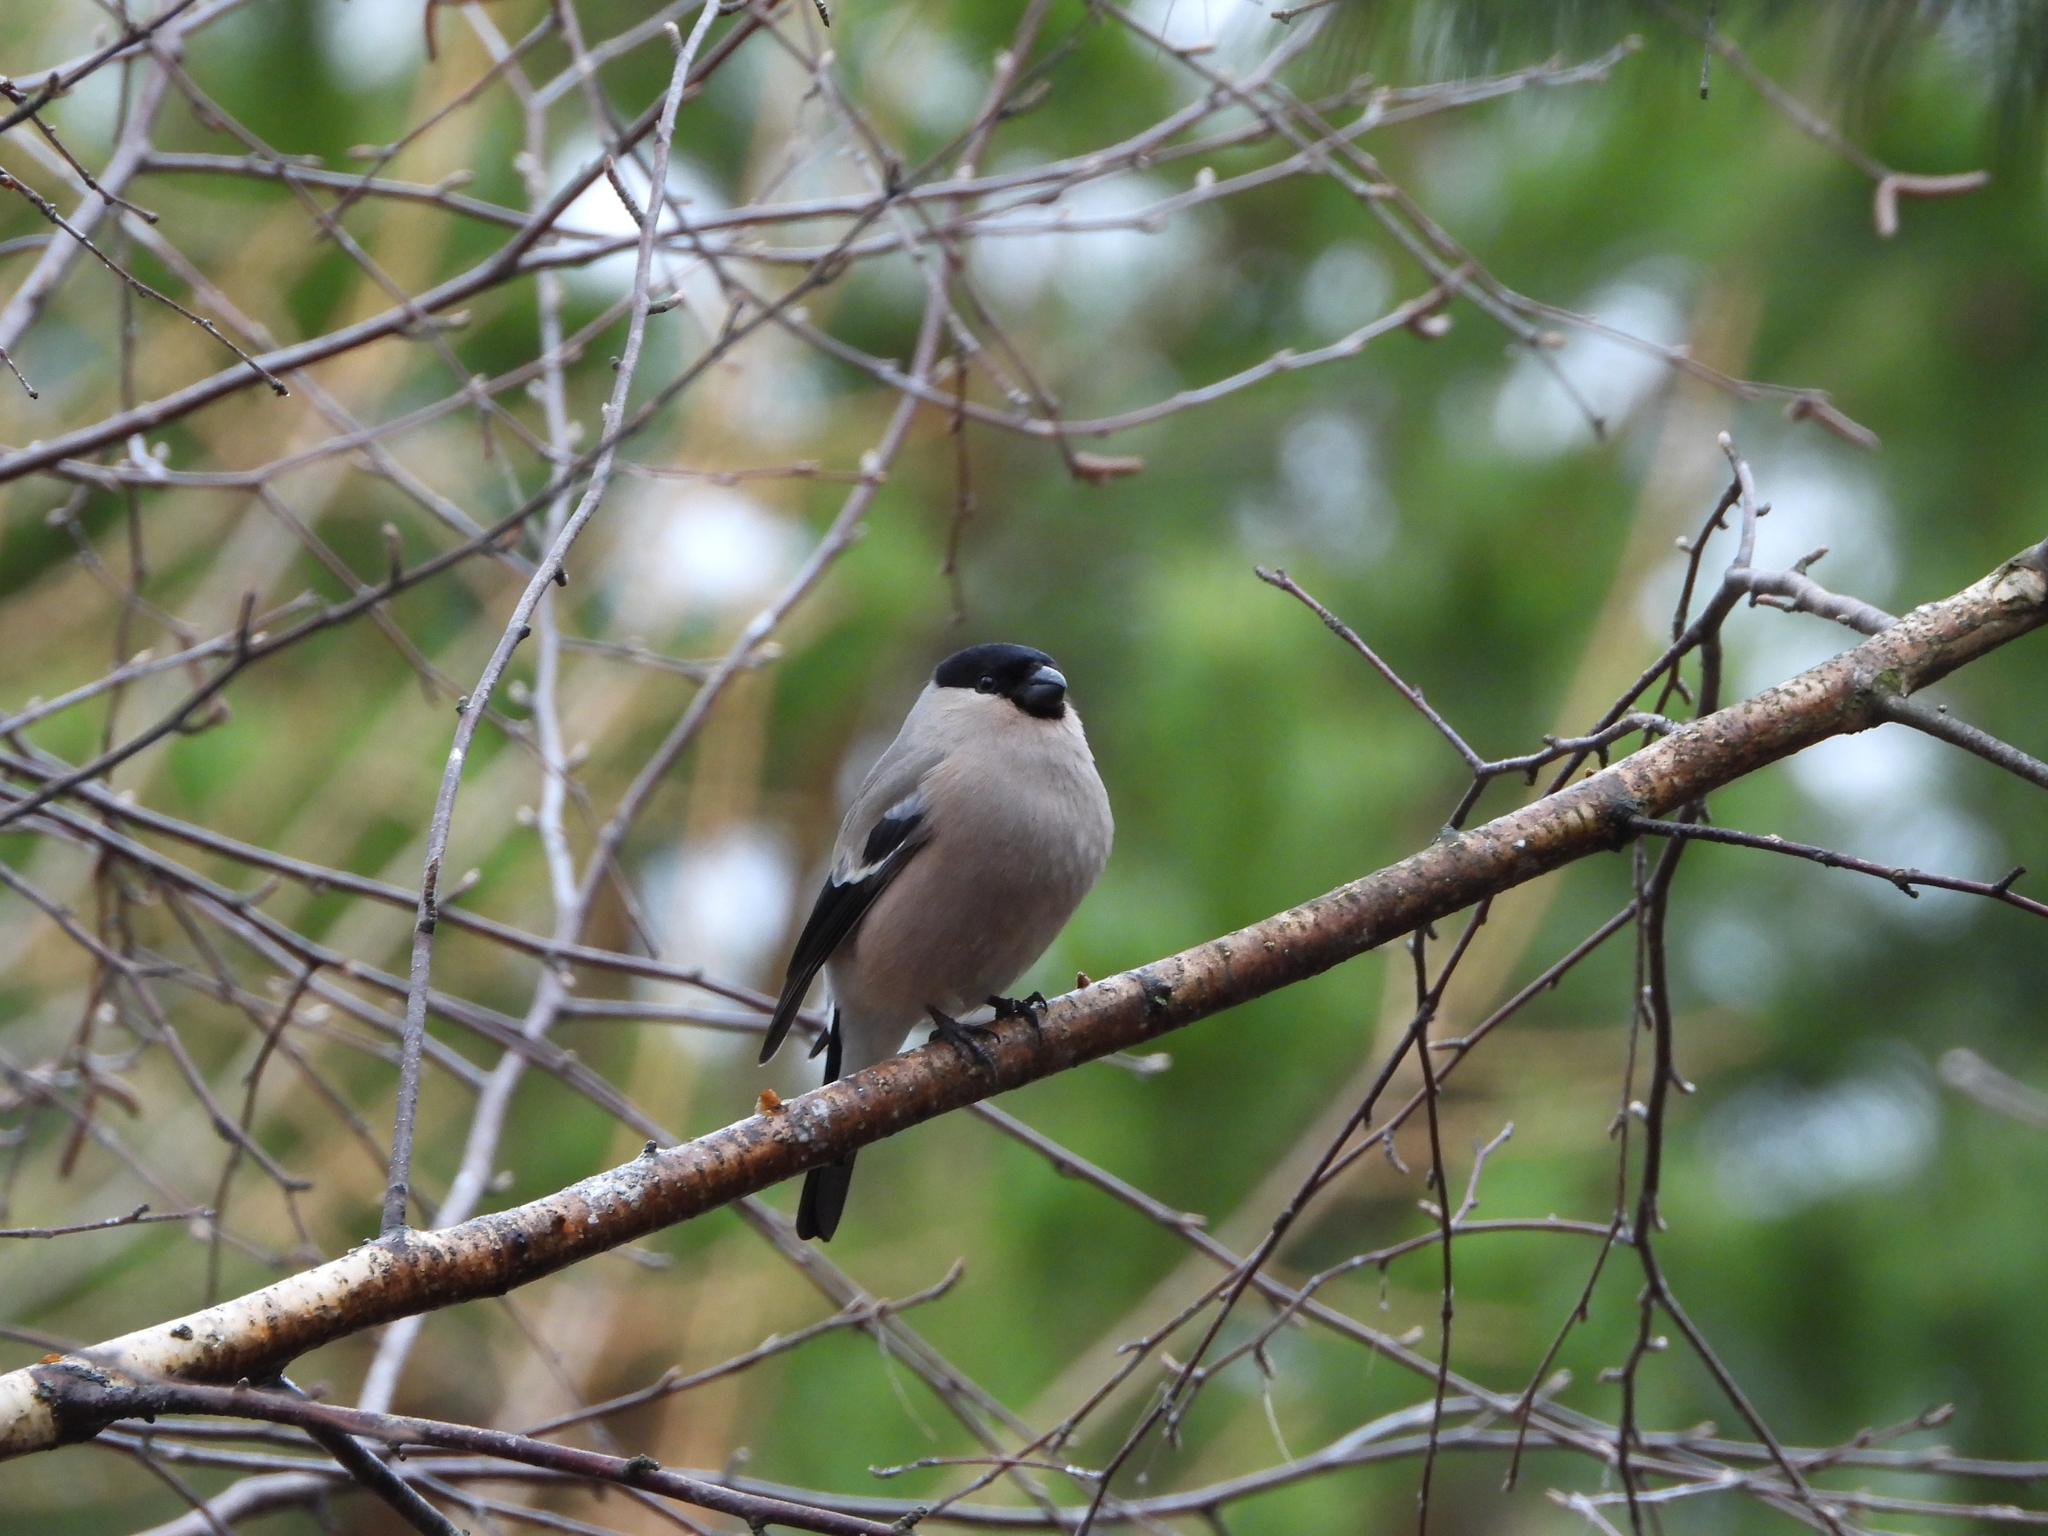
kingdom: Animalia
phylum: Chordata
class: Aves
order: Passeriformes
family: Fringillidae
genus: Pyrrhula
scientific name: Pyrrhula pyrrhula
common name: Eurasian bullfinch
